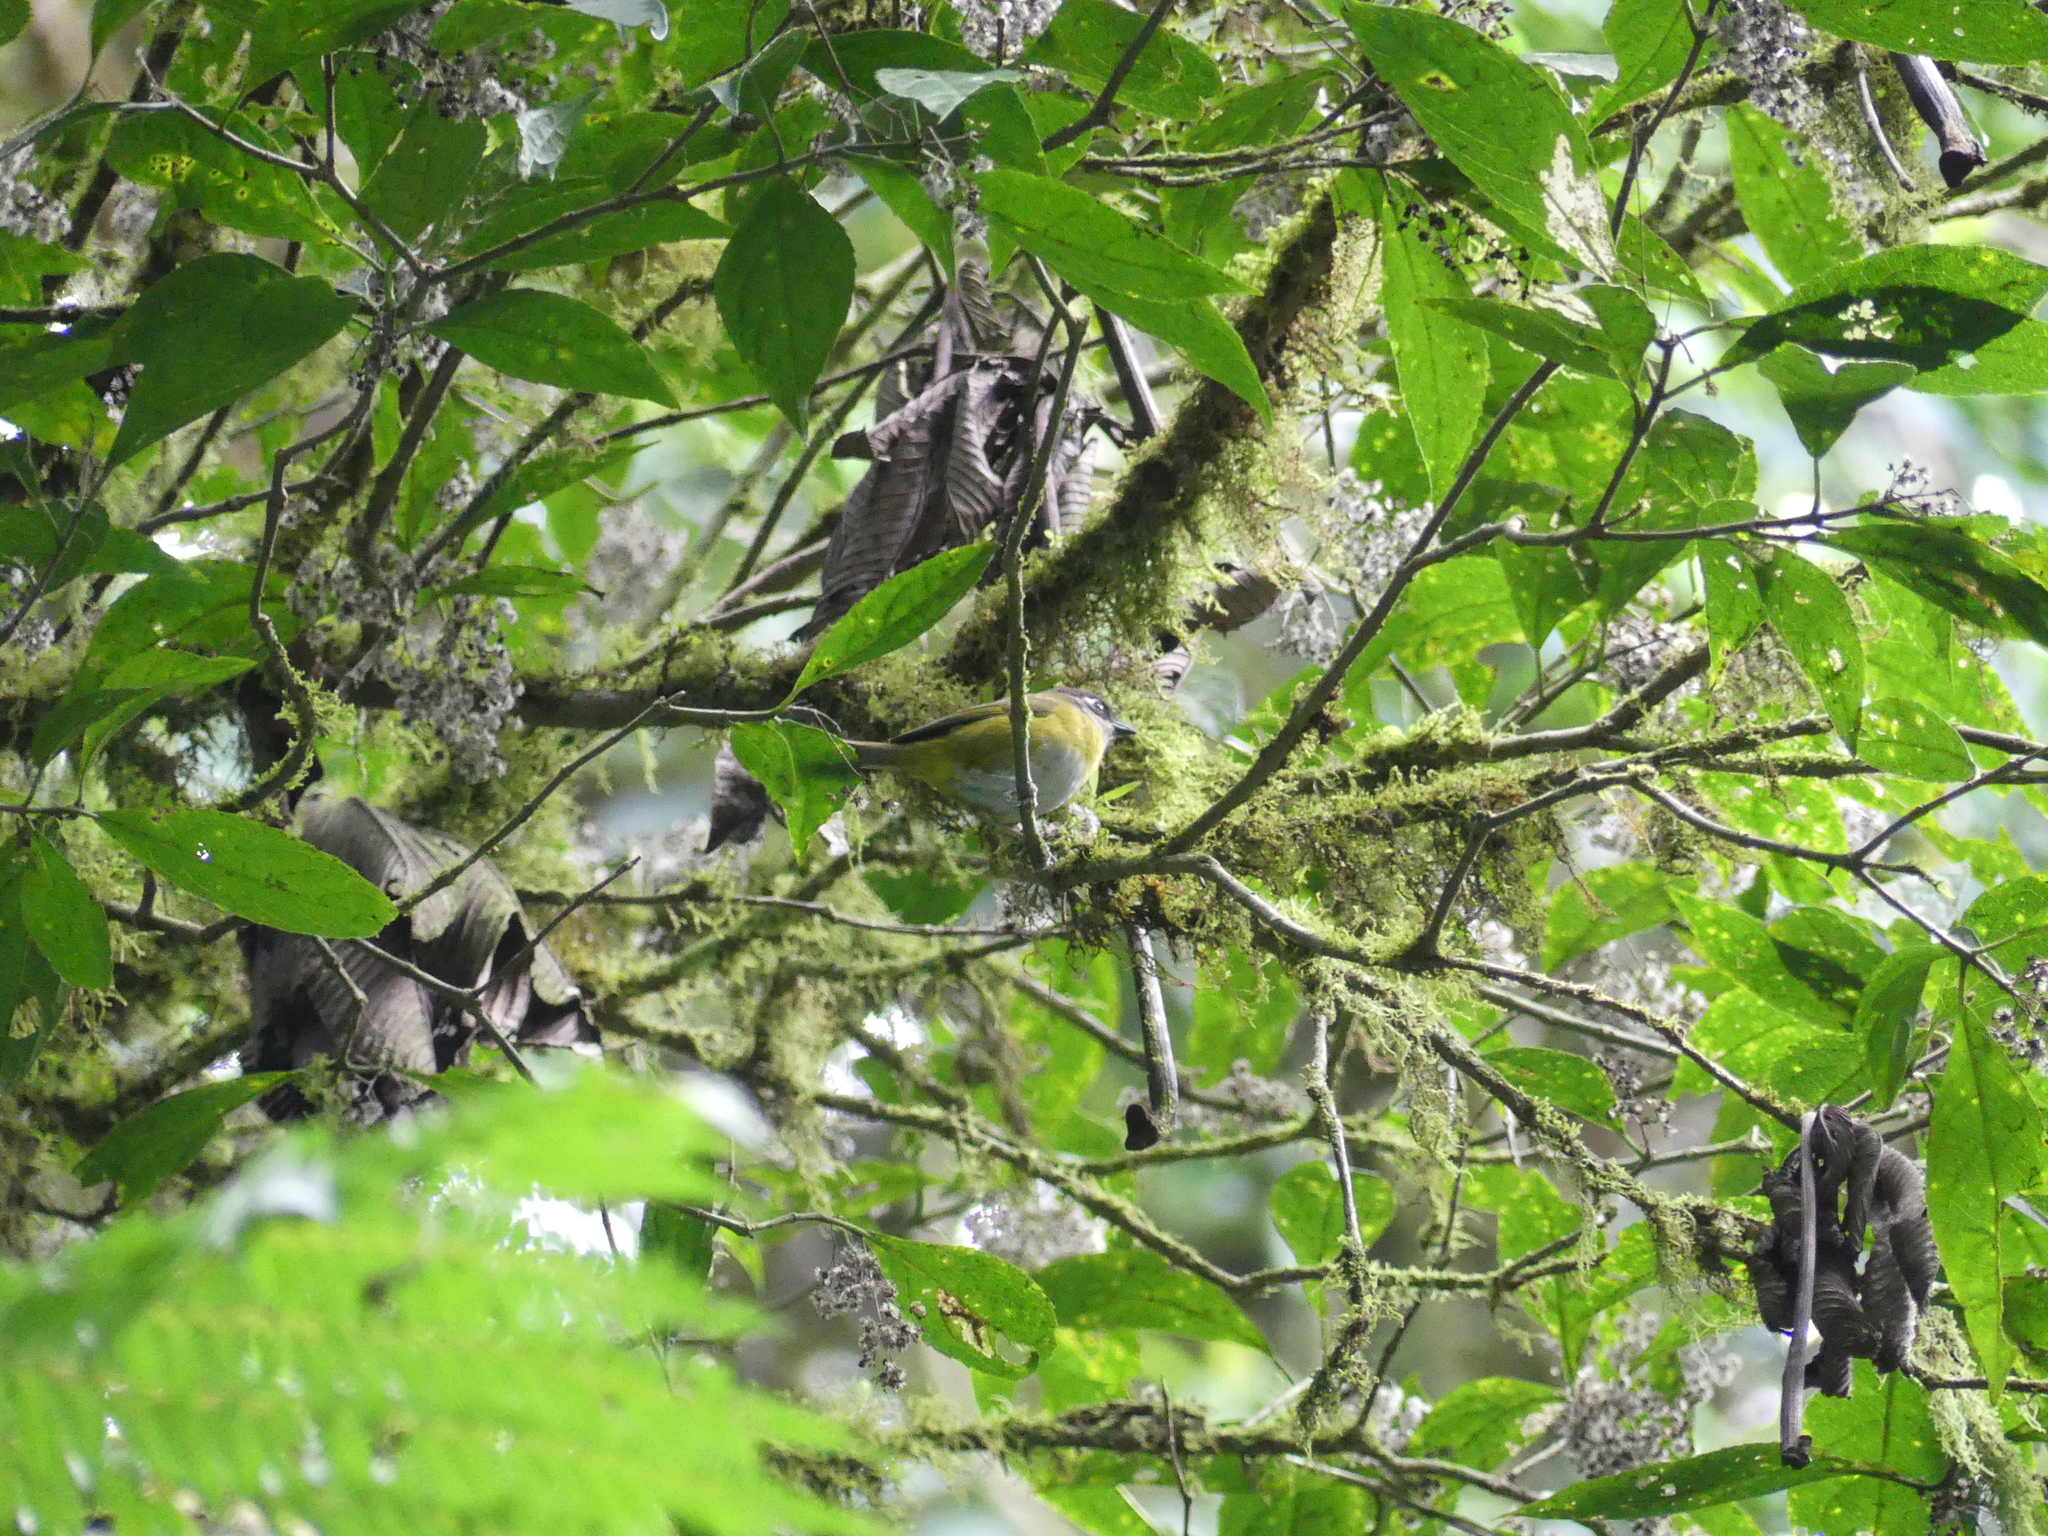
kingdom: Animalia
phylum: Chordata
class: Aves
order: Passeriformes
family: Passerellidae
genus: Chlorospingus
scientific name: Chlorospingus flavopectus
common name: Common chlorospingus
